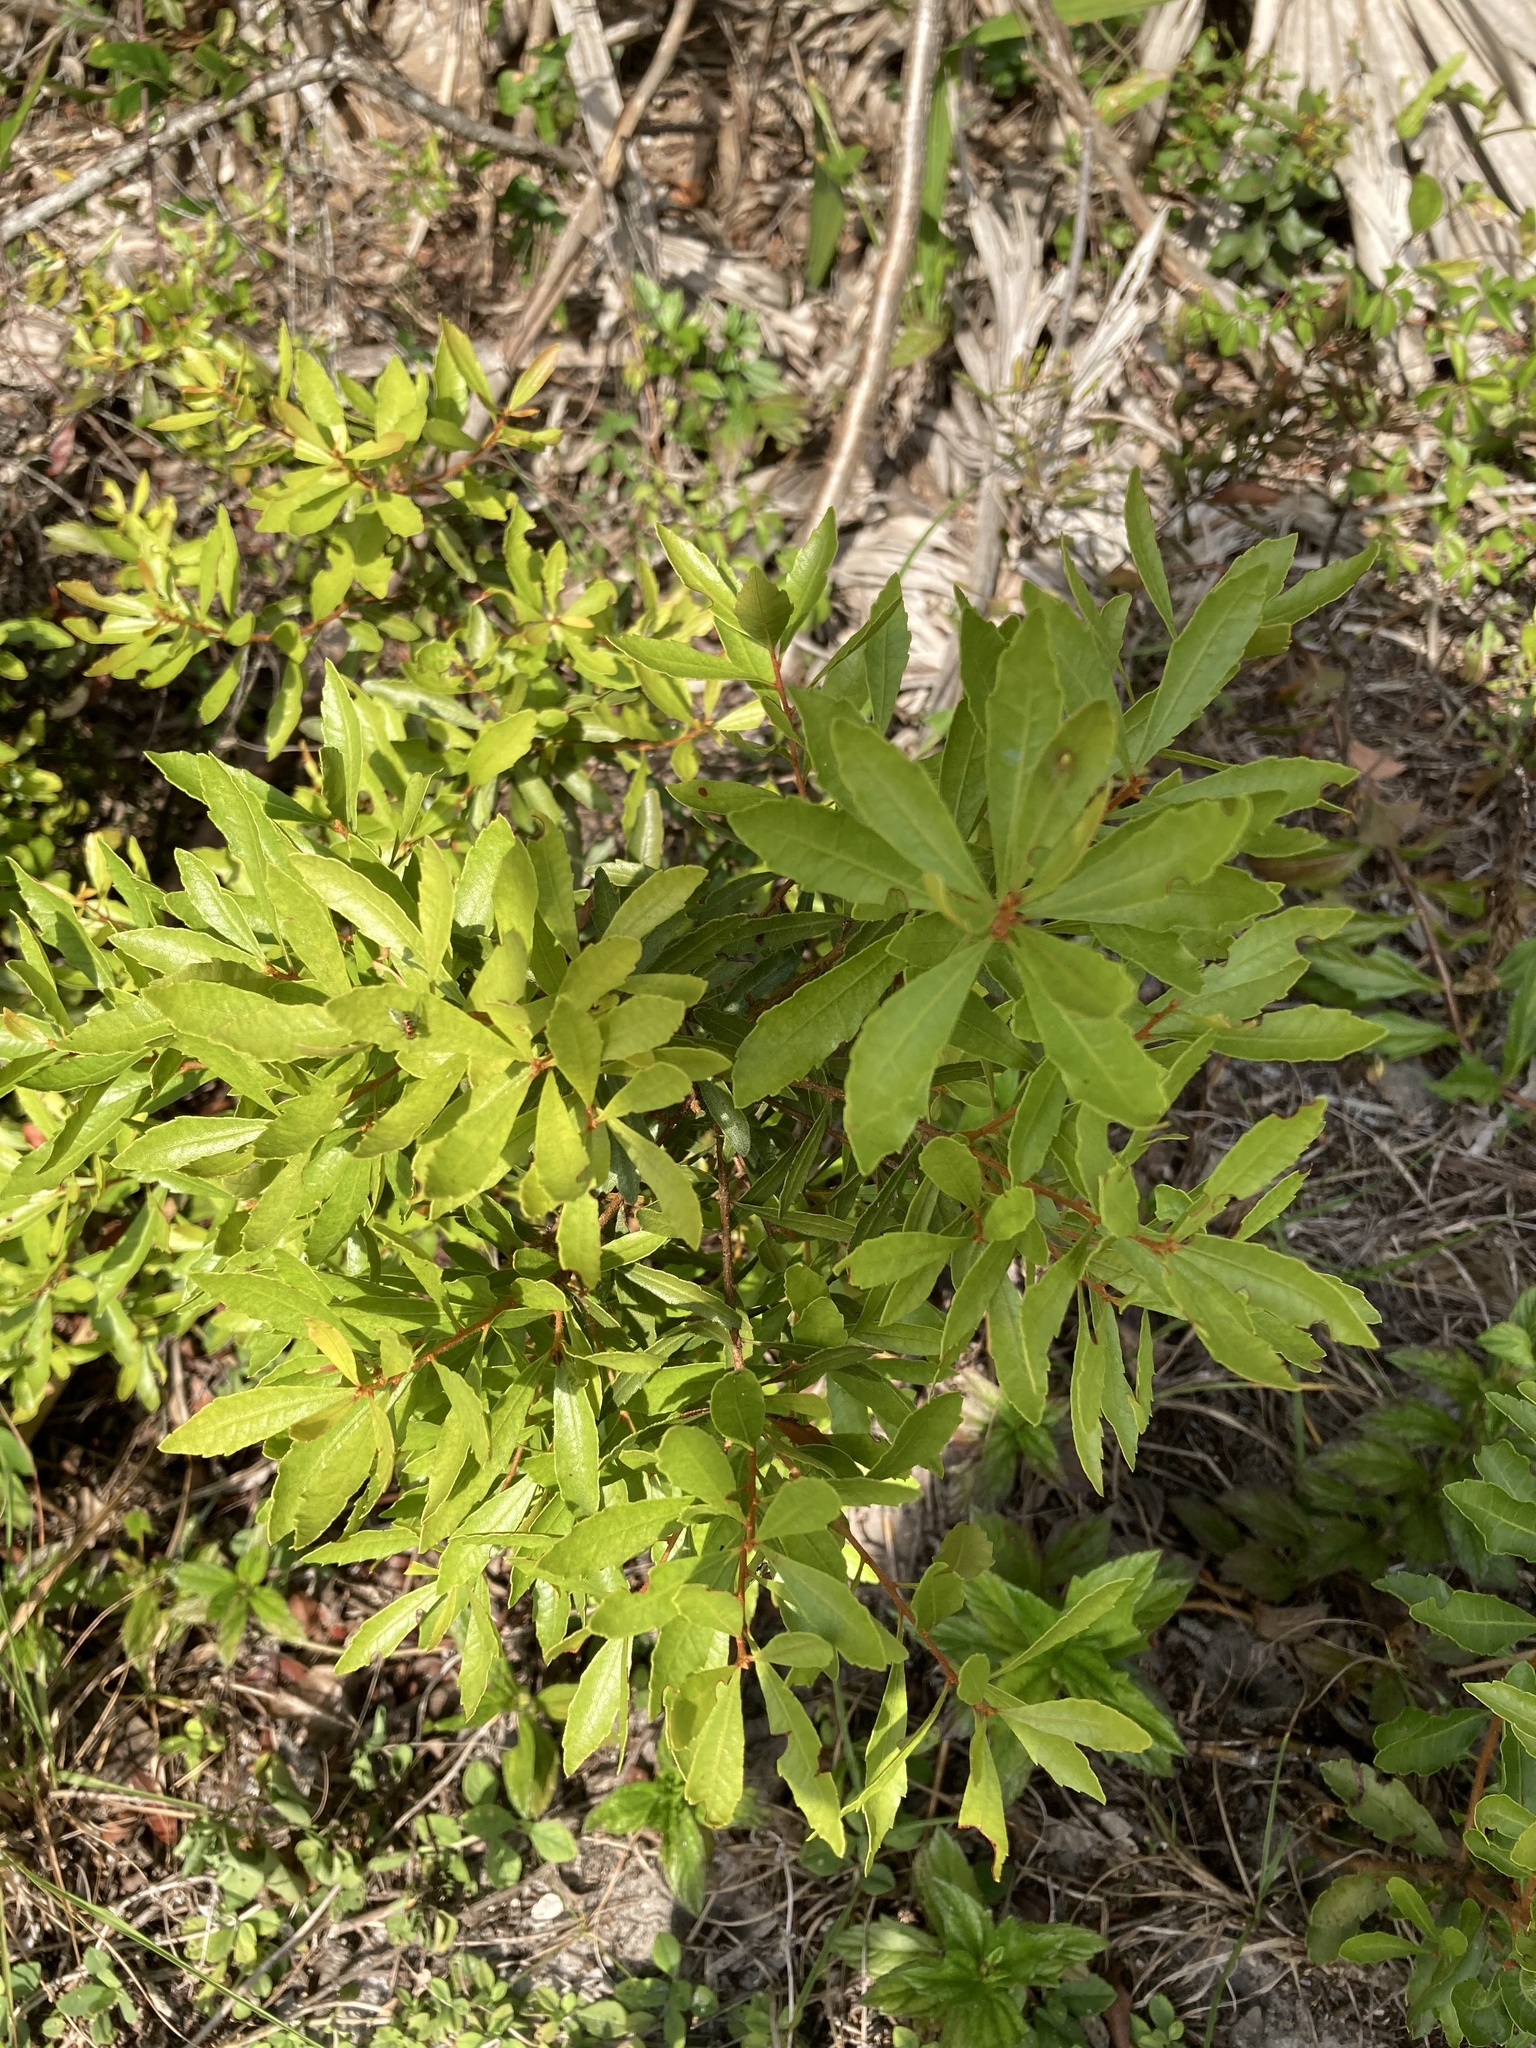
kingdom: Plantae
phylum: Tracheophyta
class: Magnoliopsida
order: Fagales
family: Myricaceae
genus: Morella
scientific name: Morella cerifera
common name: Wax myrtle
